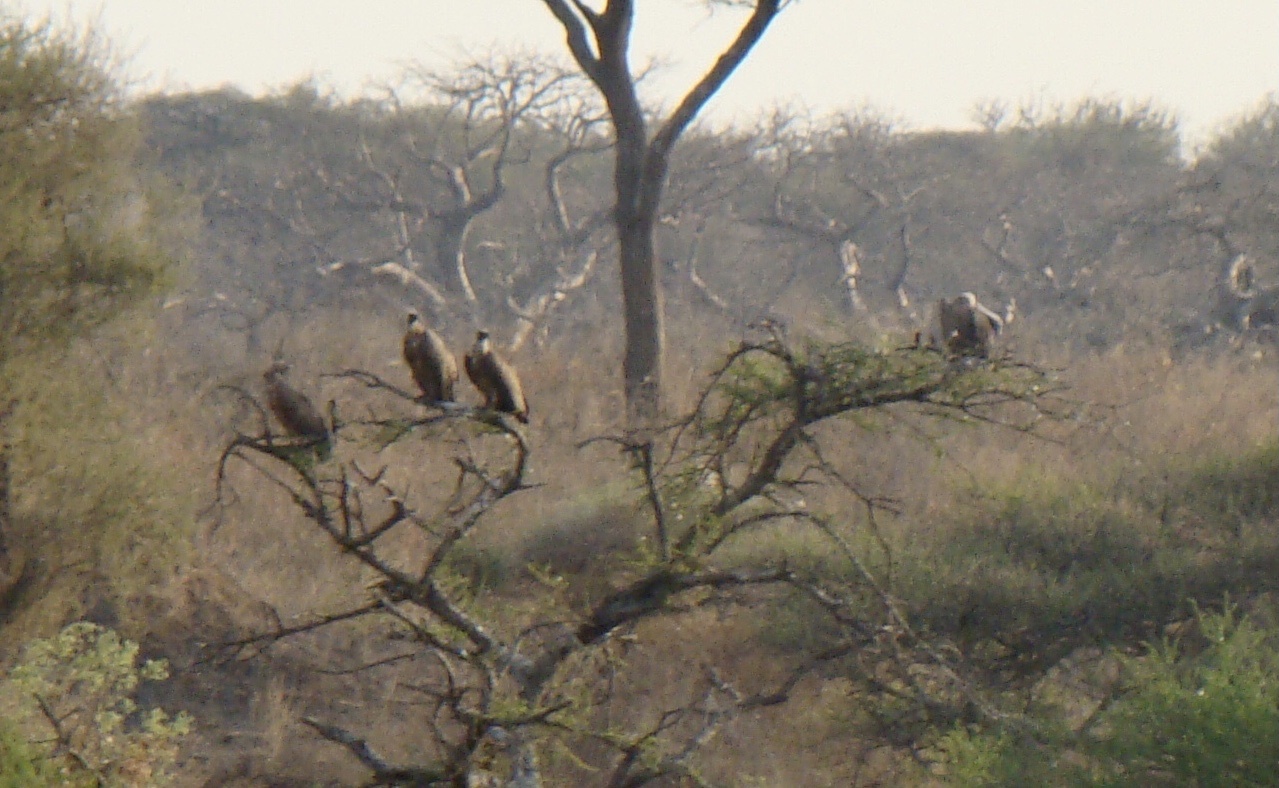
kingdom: Animalia
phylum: Chordata
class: Aves
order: Accipitriformes
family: Accipitridae
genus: Gyps
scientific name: Gyps africanus
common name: White-backed vulture
